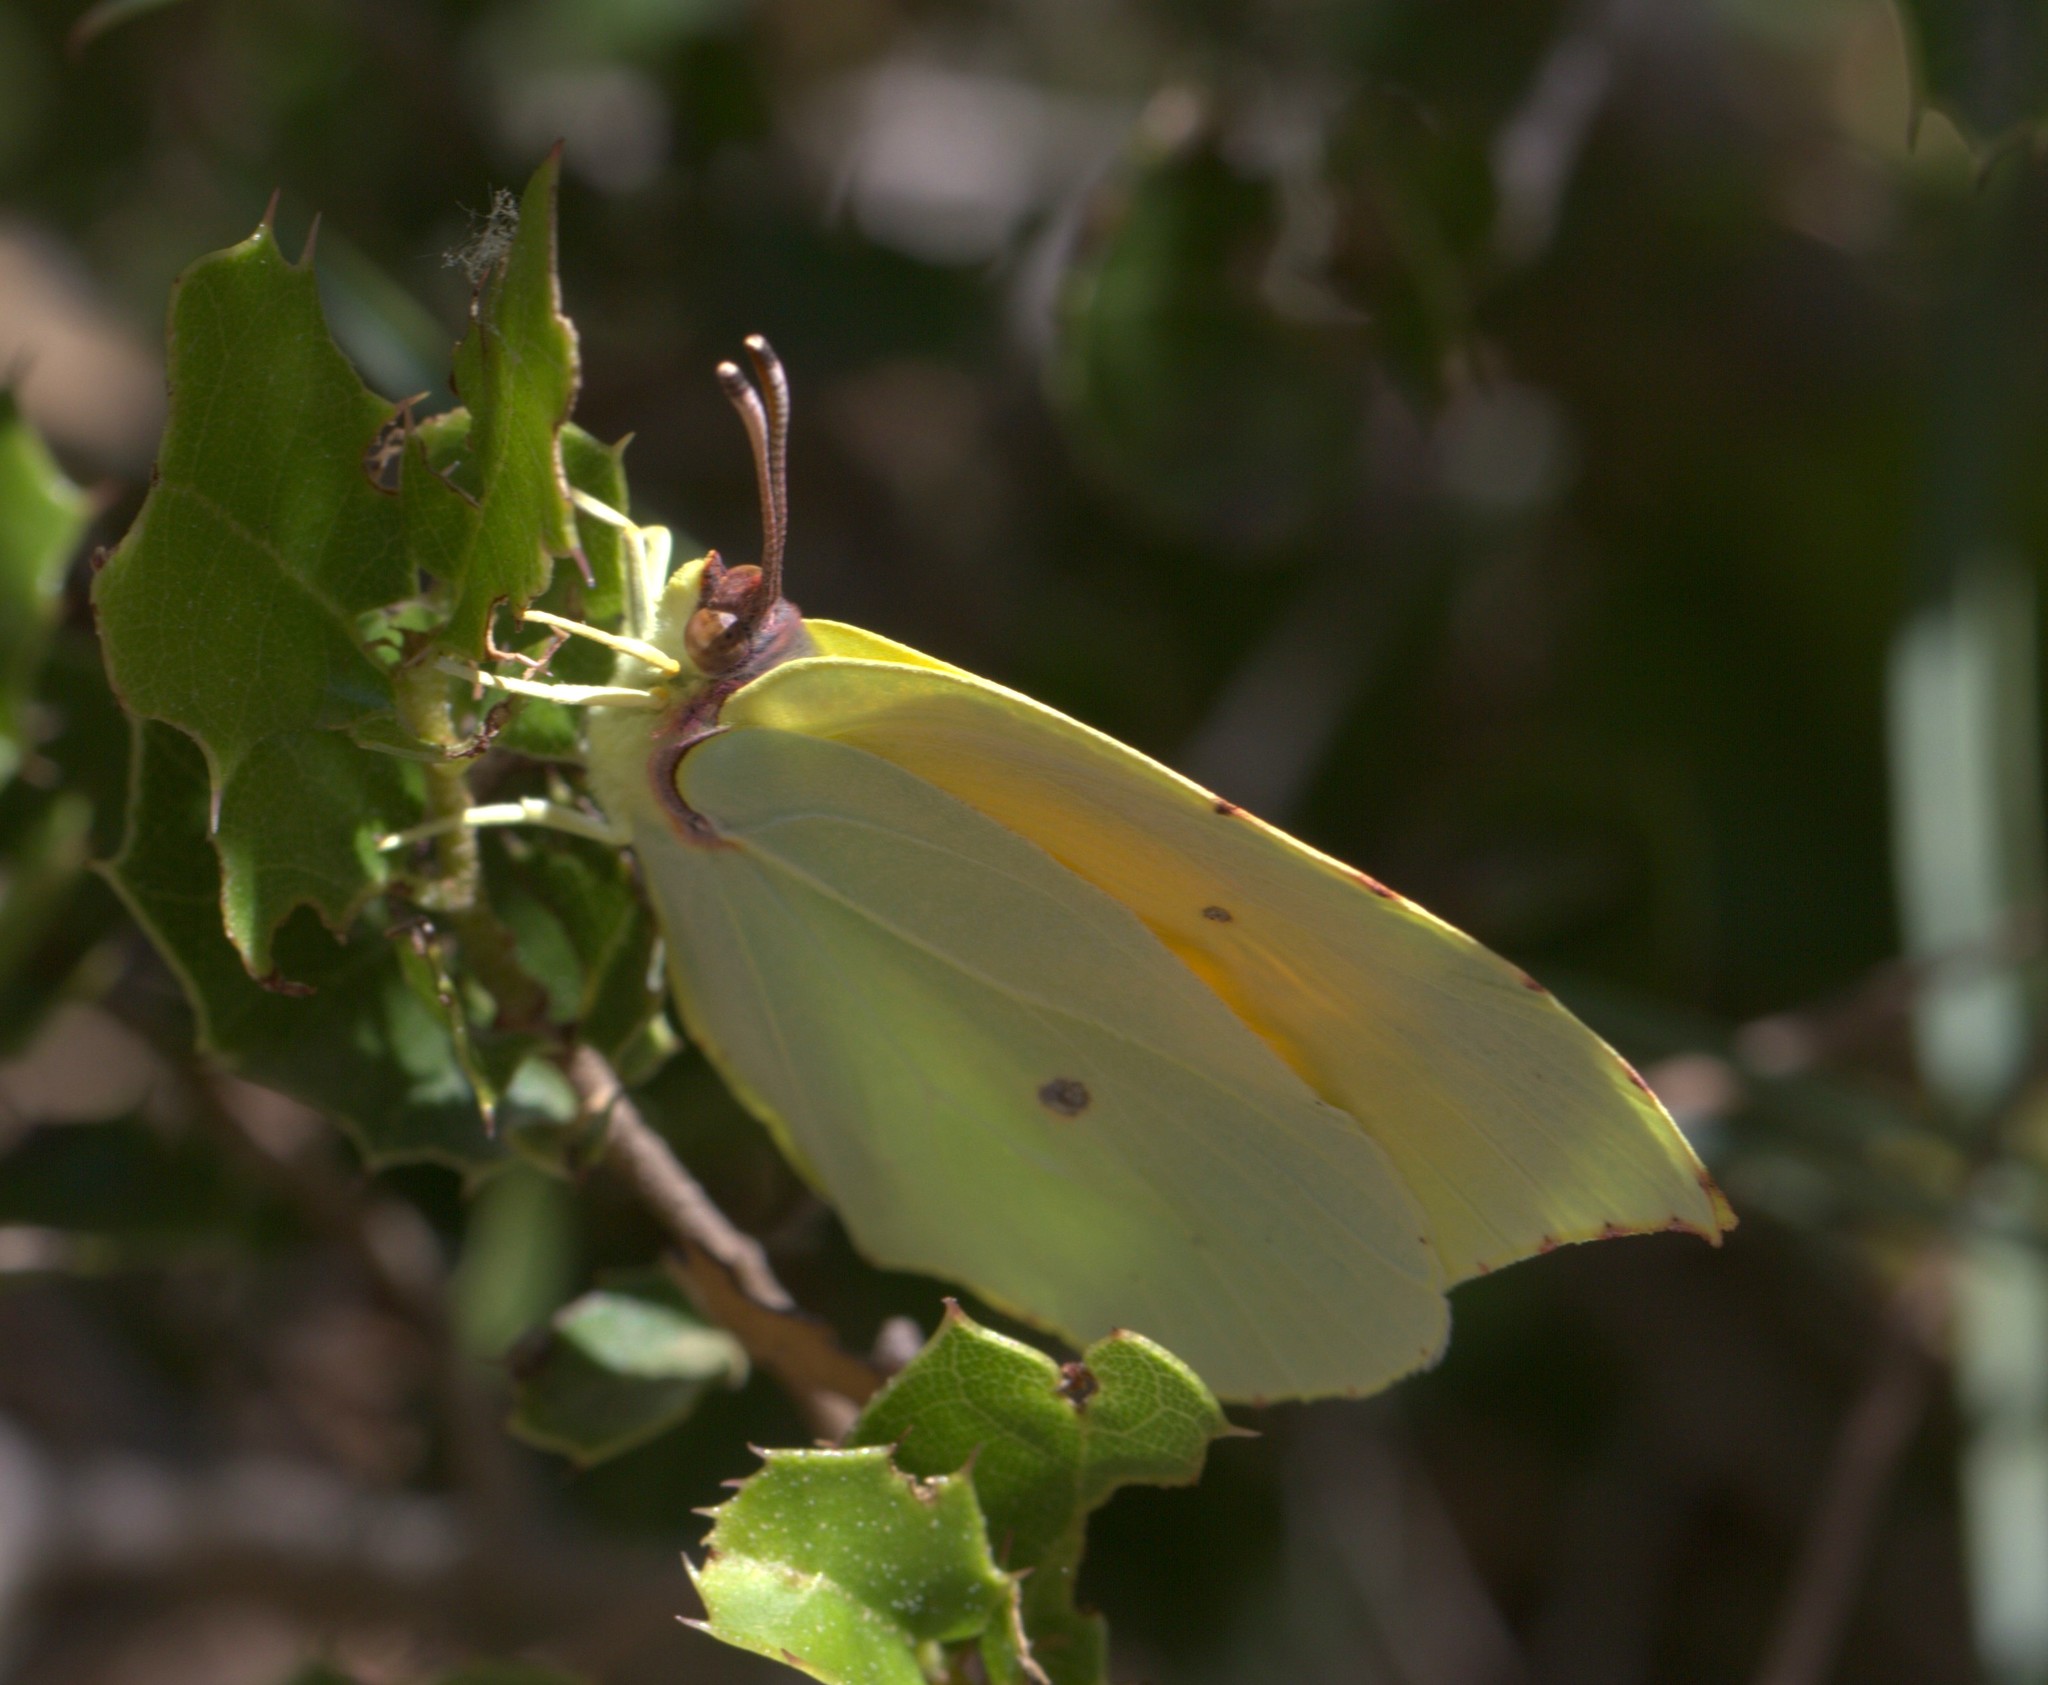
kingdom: Animalia
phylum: Arthropoda
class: Insecta
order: Lepidoptera
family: Pieridae
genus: Gonepteryx
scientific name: Gonepteryx cleopatra
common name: Cleopatra
